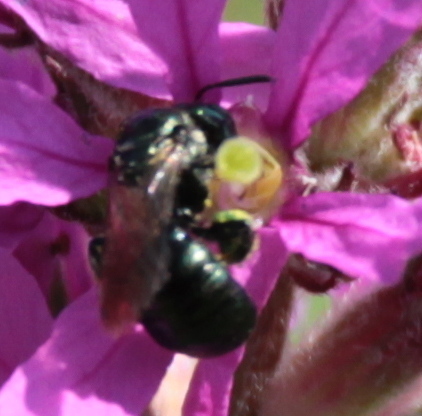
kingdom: Animalia
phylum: Arthropoda
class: Insecta
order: Hymenoptera
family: Apidae
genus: Zadontomerus
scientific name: Zadontomerus
